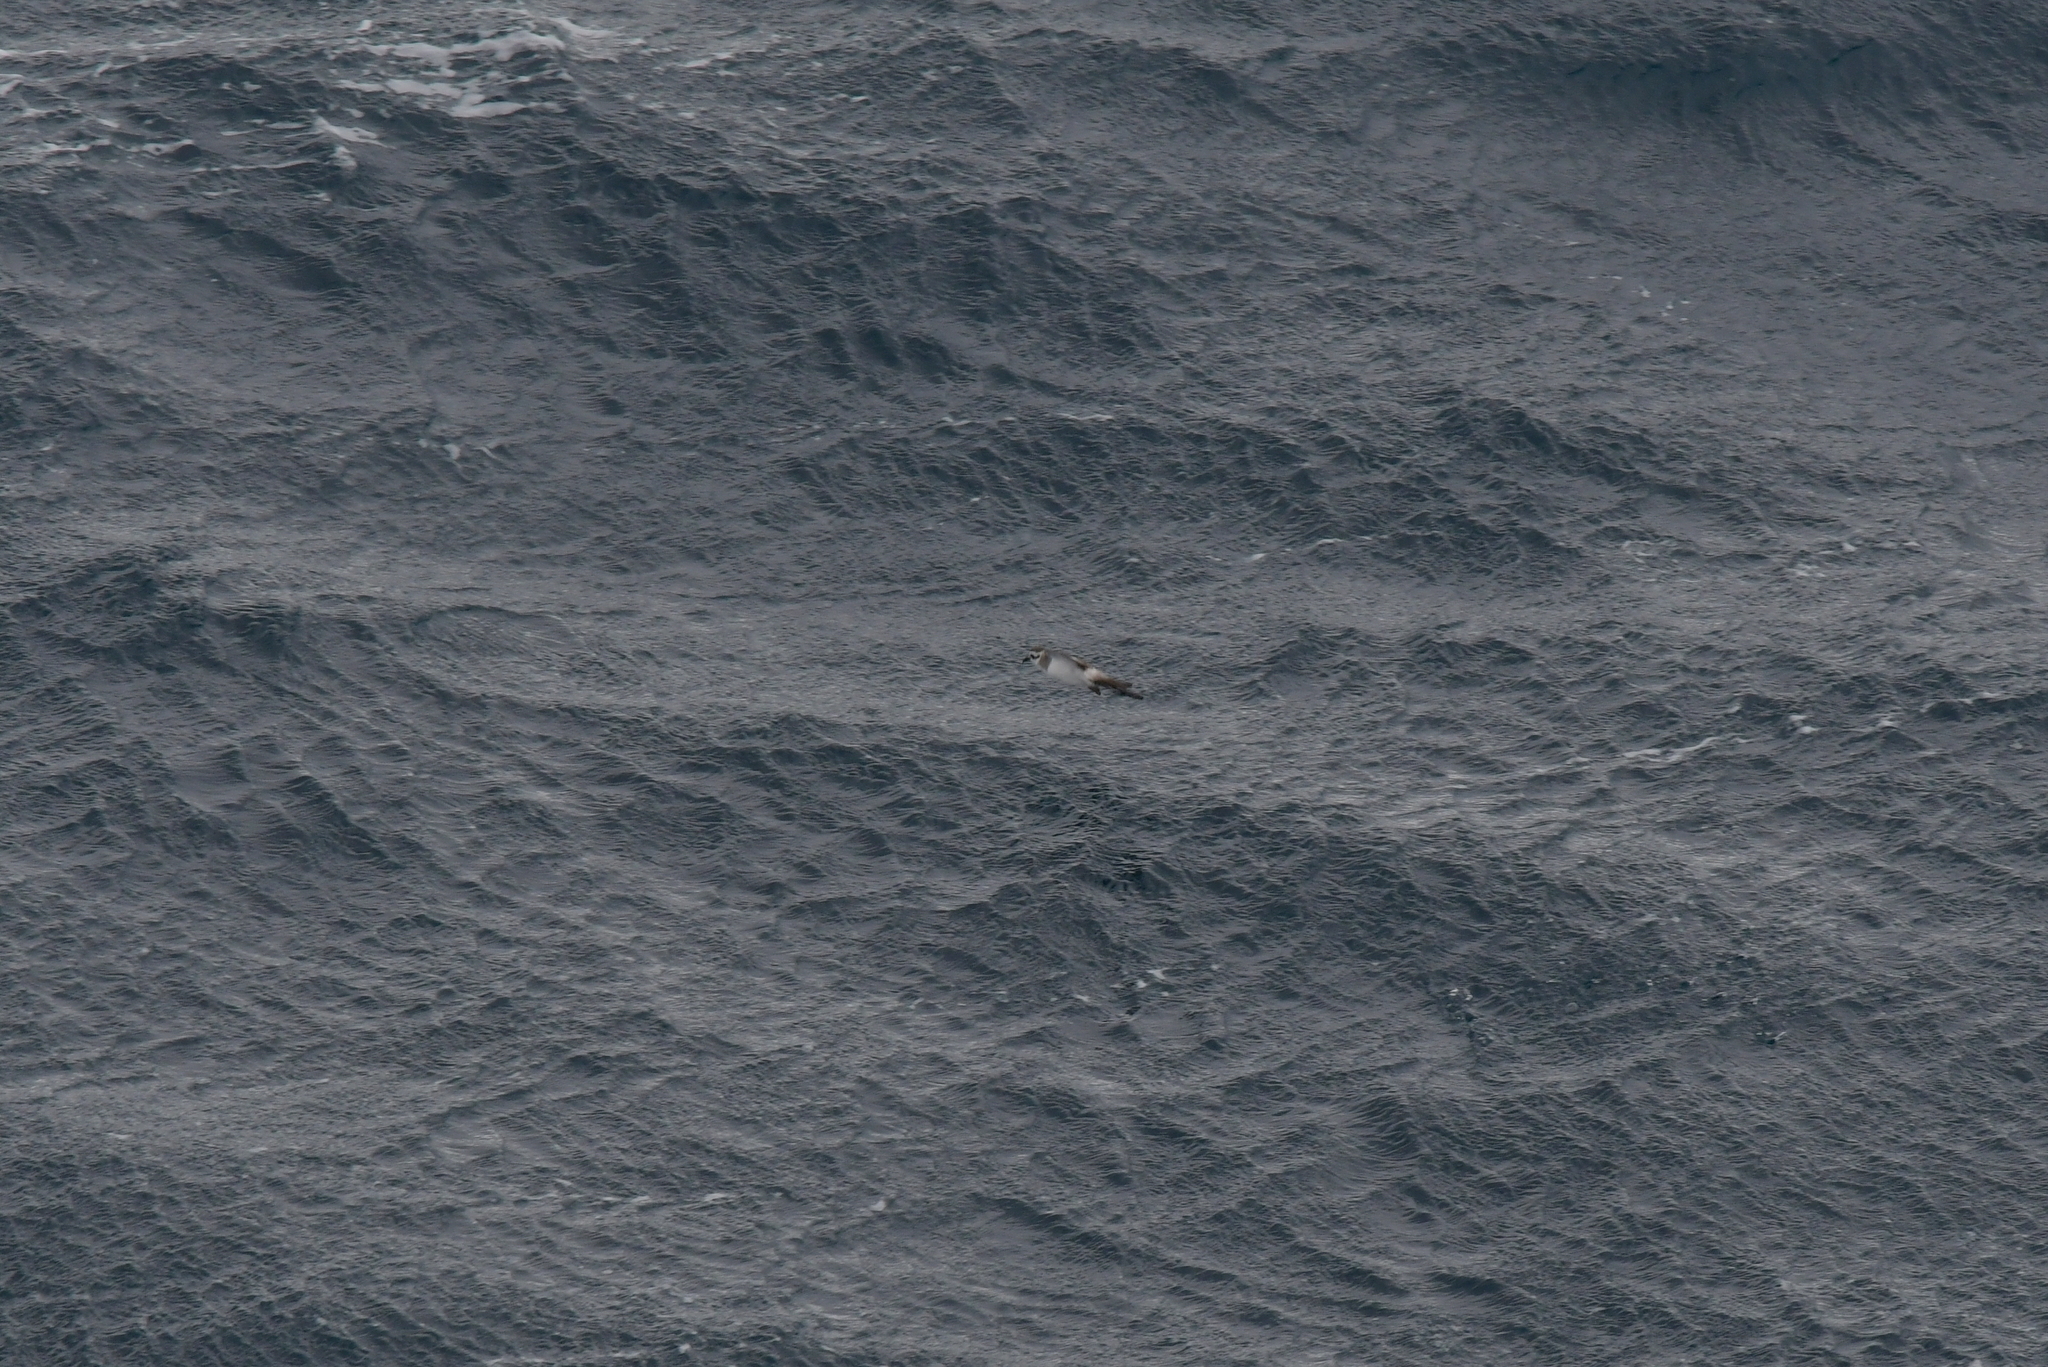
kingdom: Animalia
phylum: Chordata
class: Aves
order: Procellariiformes
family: Hydrobatidae
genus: Pelagodroma
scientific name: Pelagodroma marina
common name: White-faced storm-petrel
